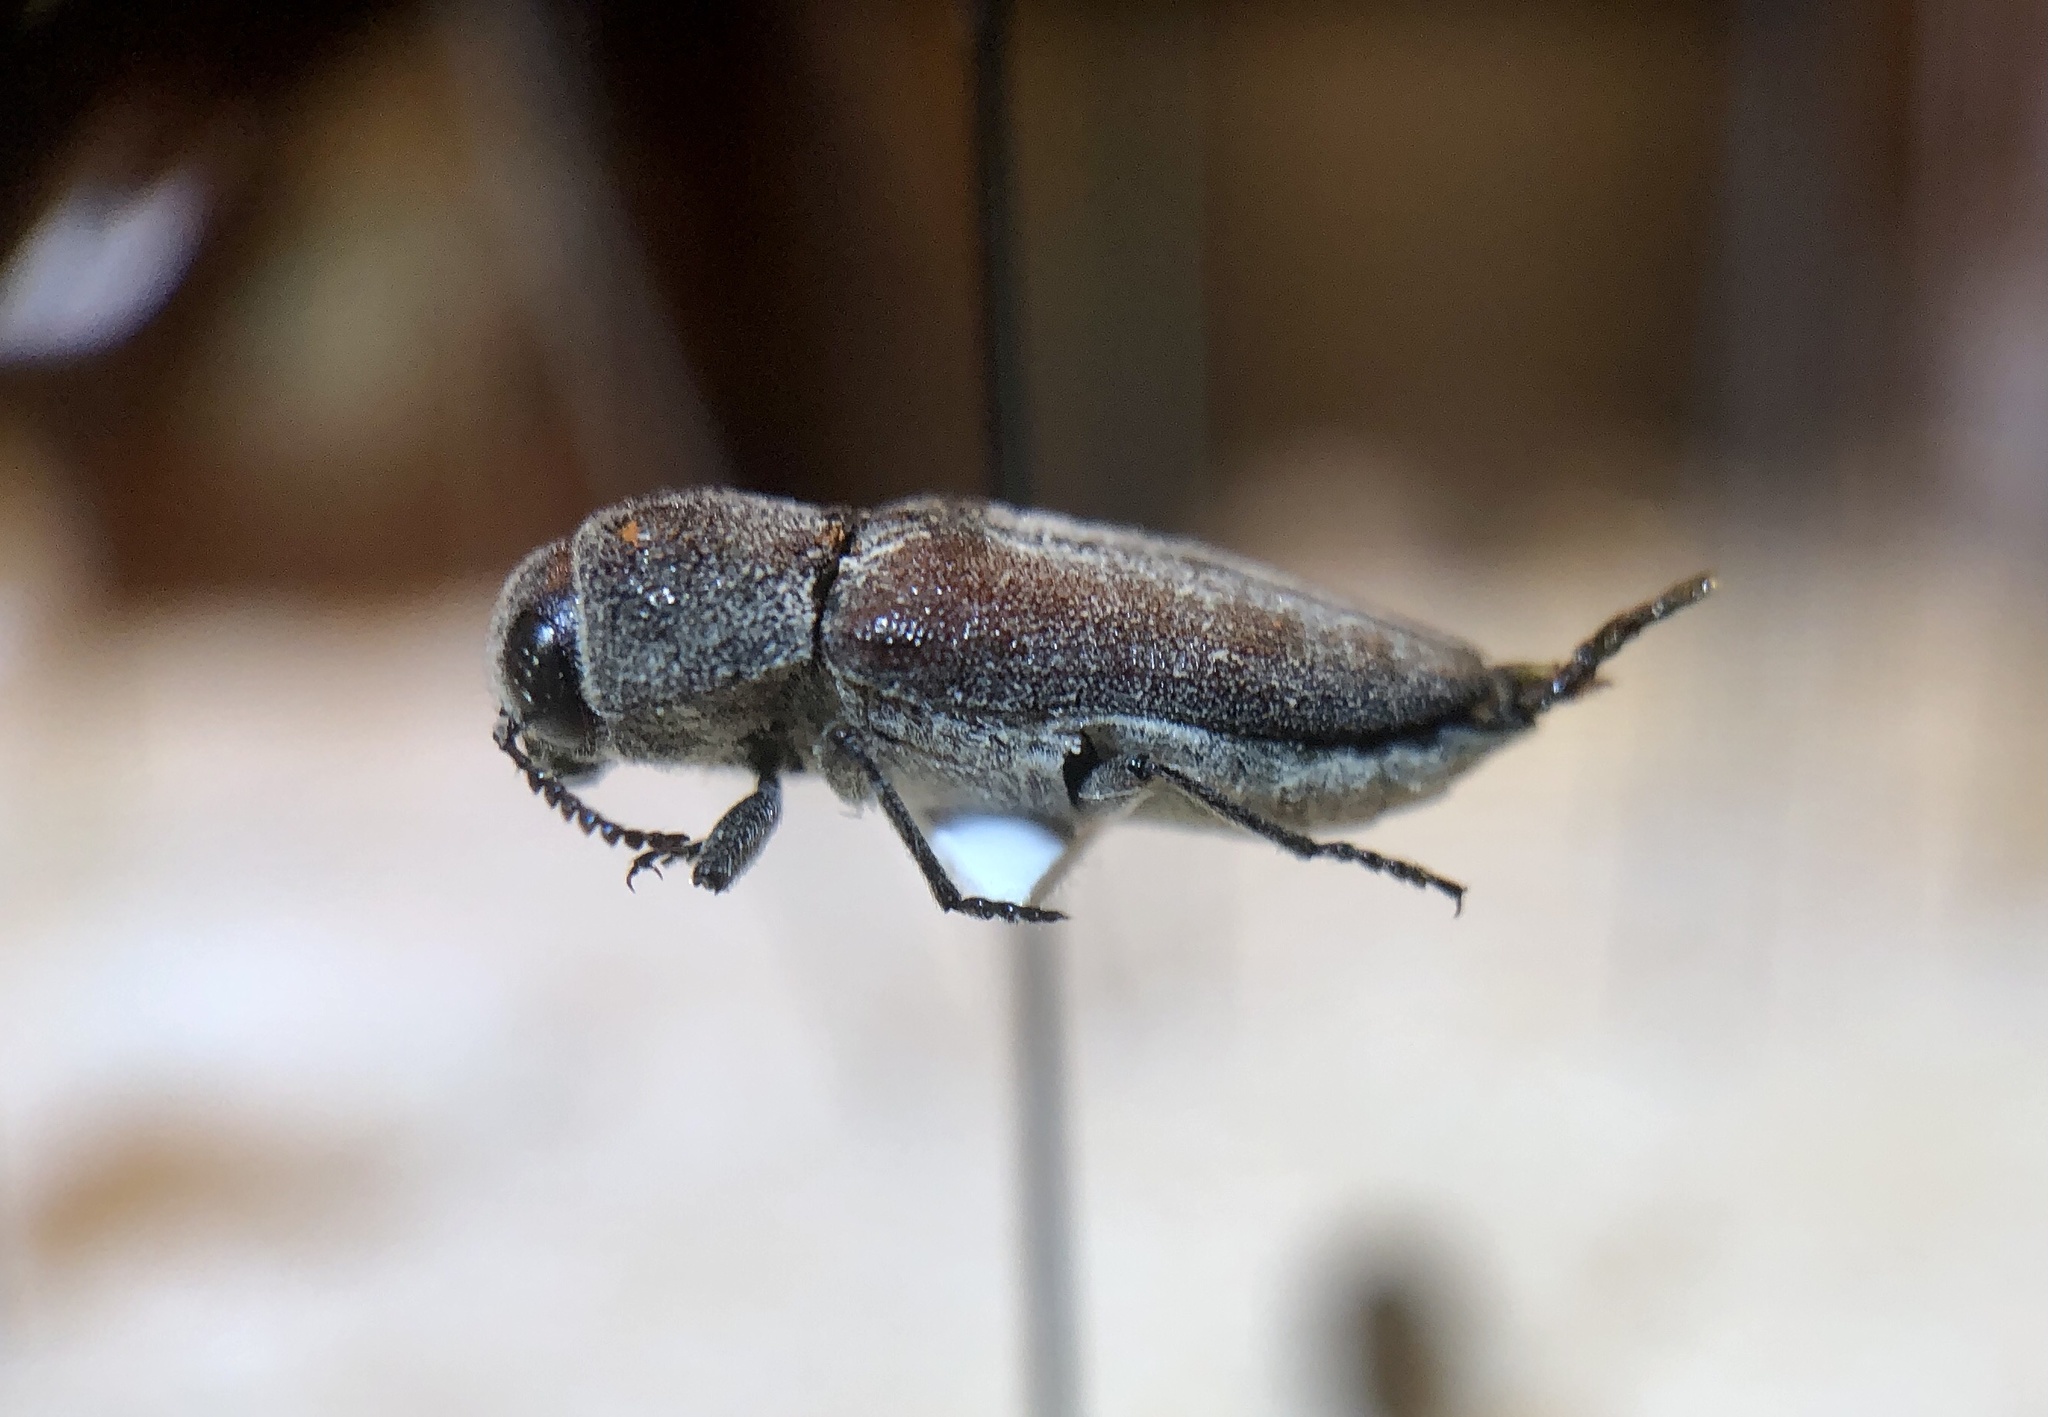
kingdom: Animalia
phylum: Arthropoda
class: Insecta
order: Coleoptera
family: Buprestidae
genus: Nanularia
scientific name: Nanularia brunneata
